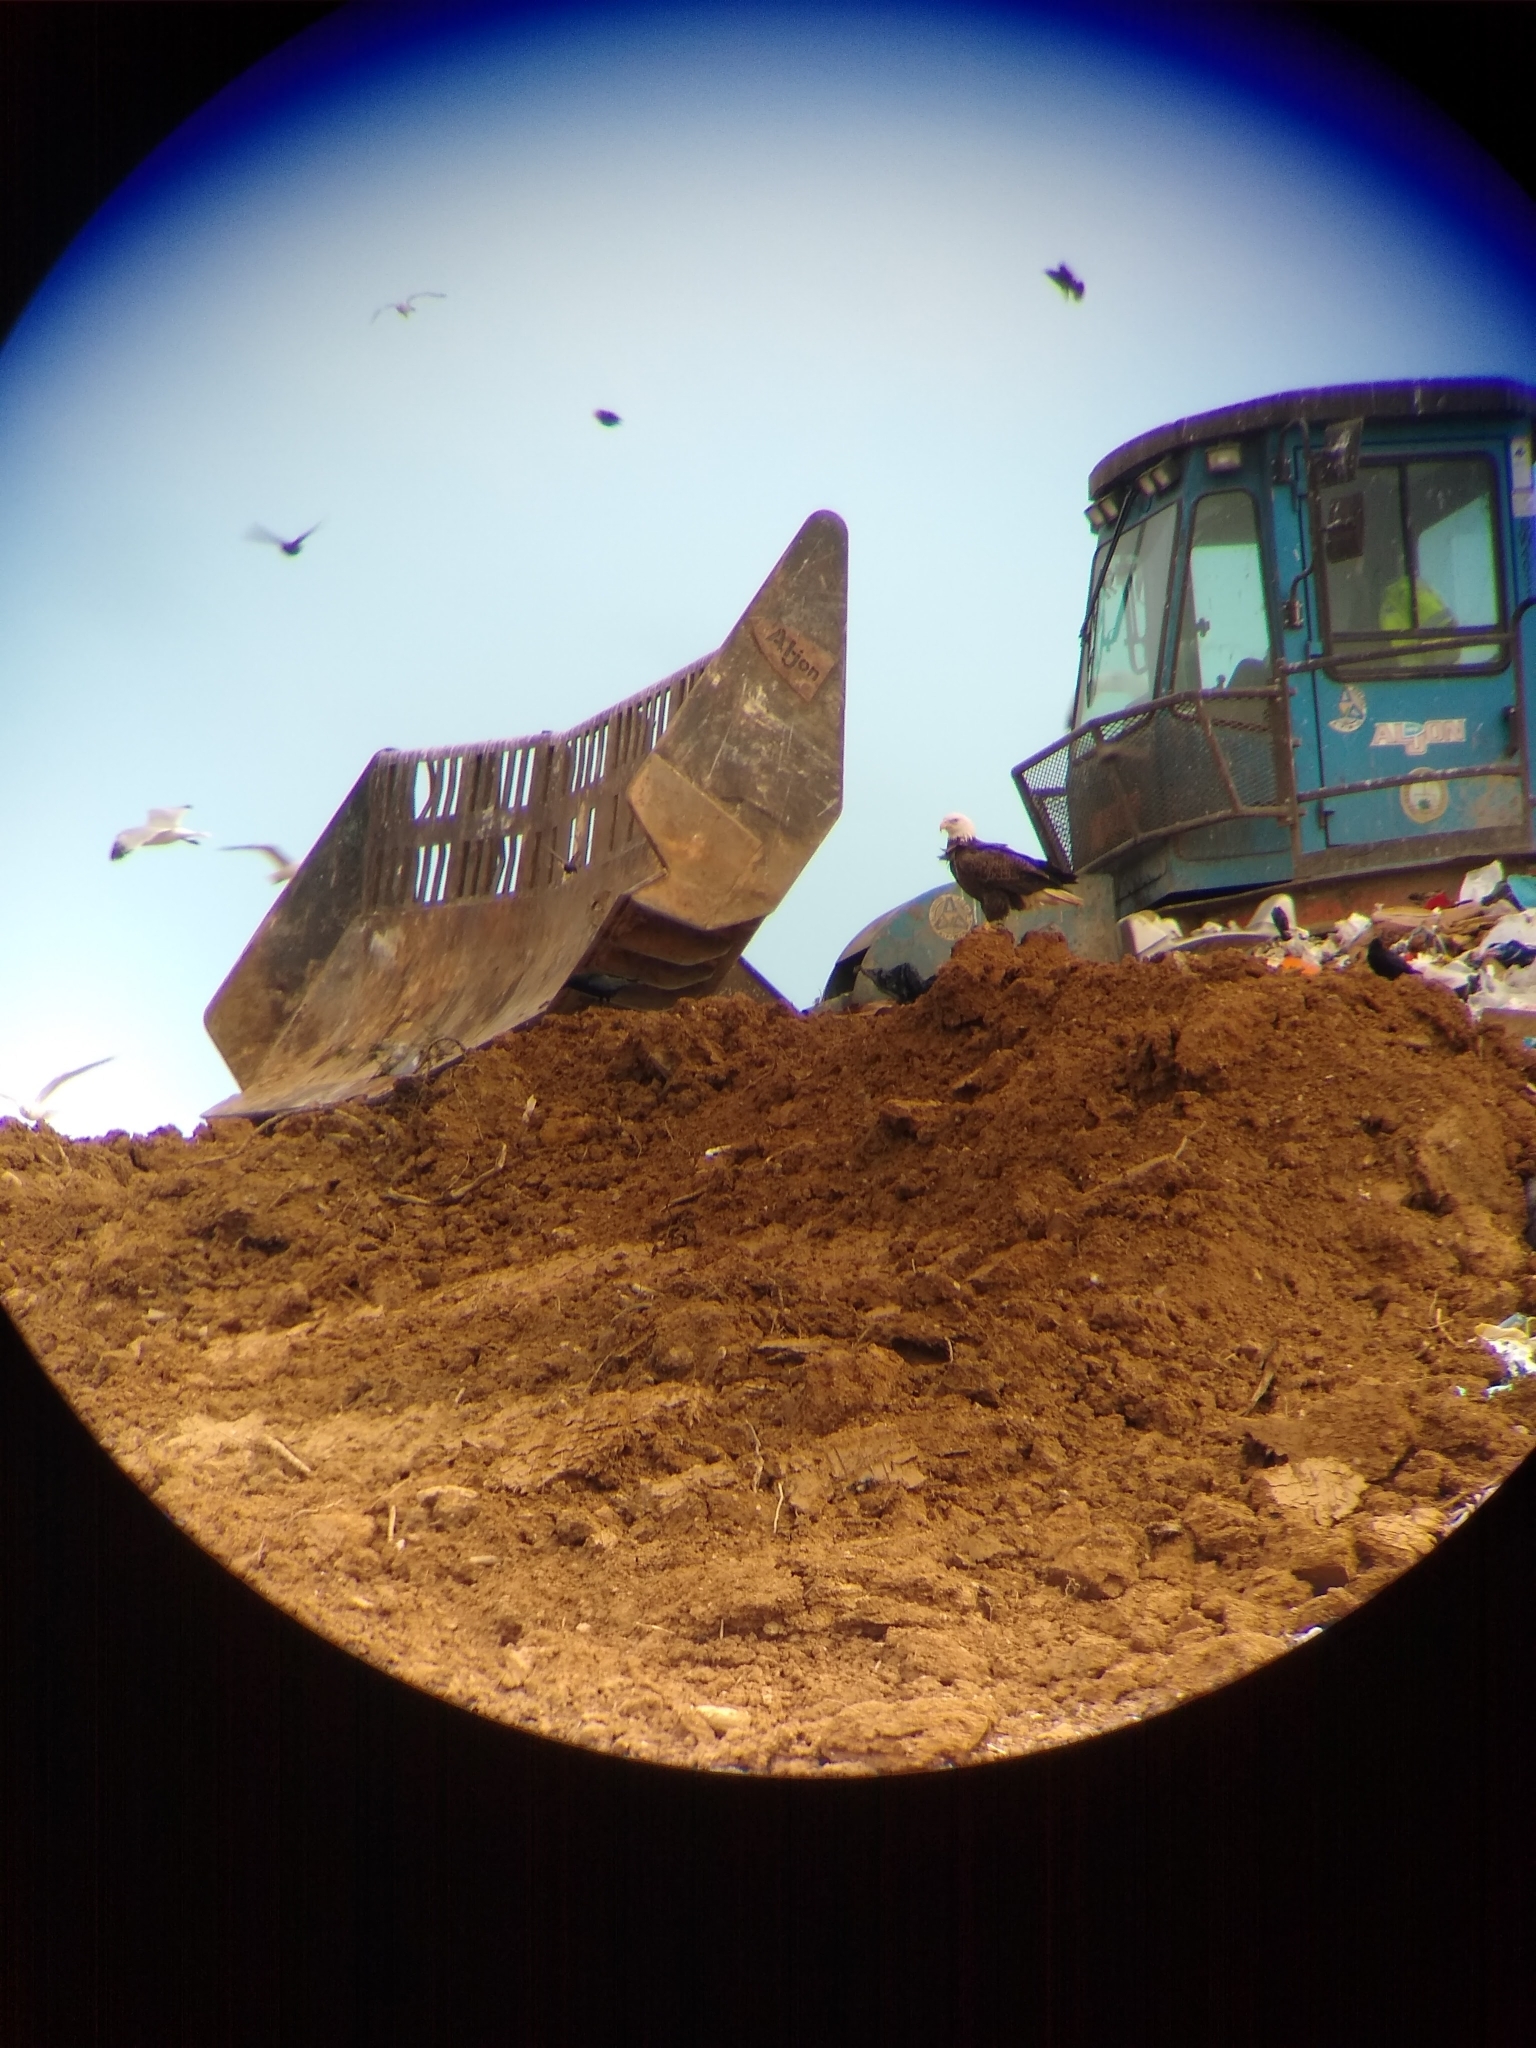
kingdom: Animalia
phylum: Chordata
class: Aves
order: Accipitriformes
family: Accipitridae
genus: Haliaeetus
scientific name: Haliaeetus leucocephalus
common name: Bald eagle
